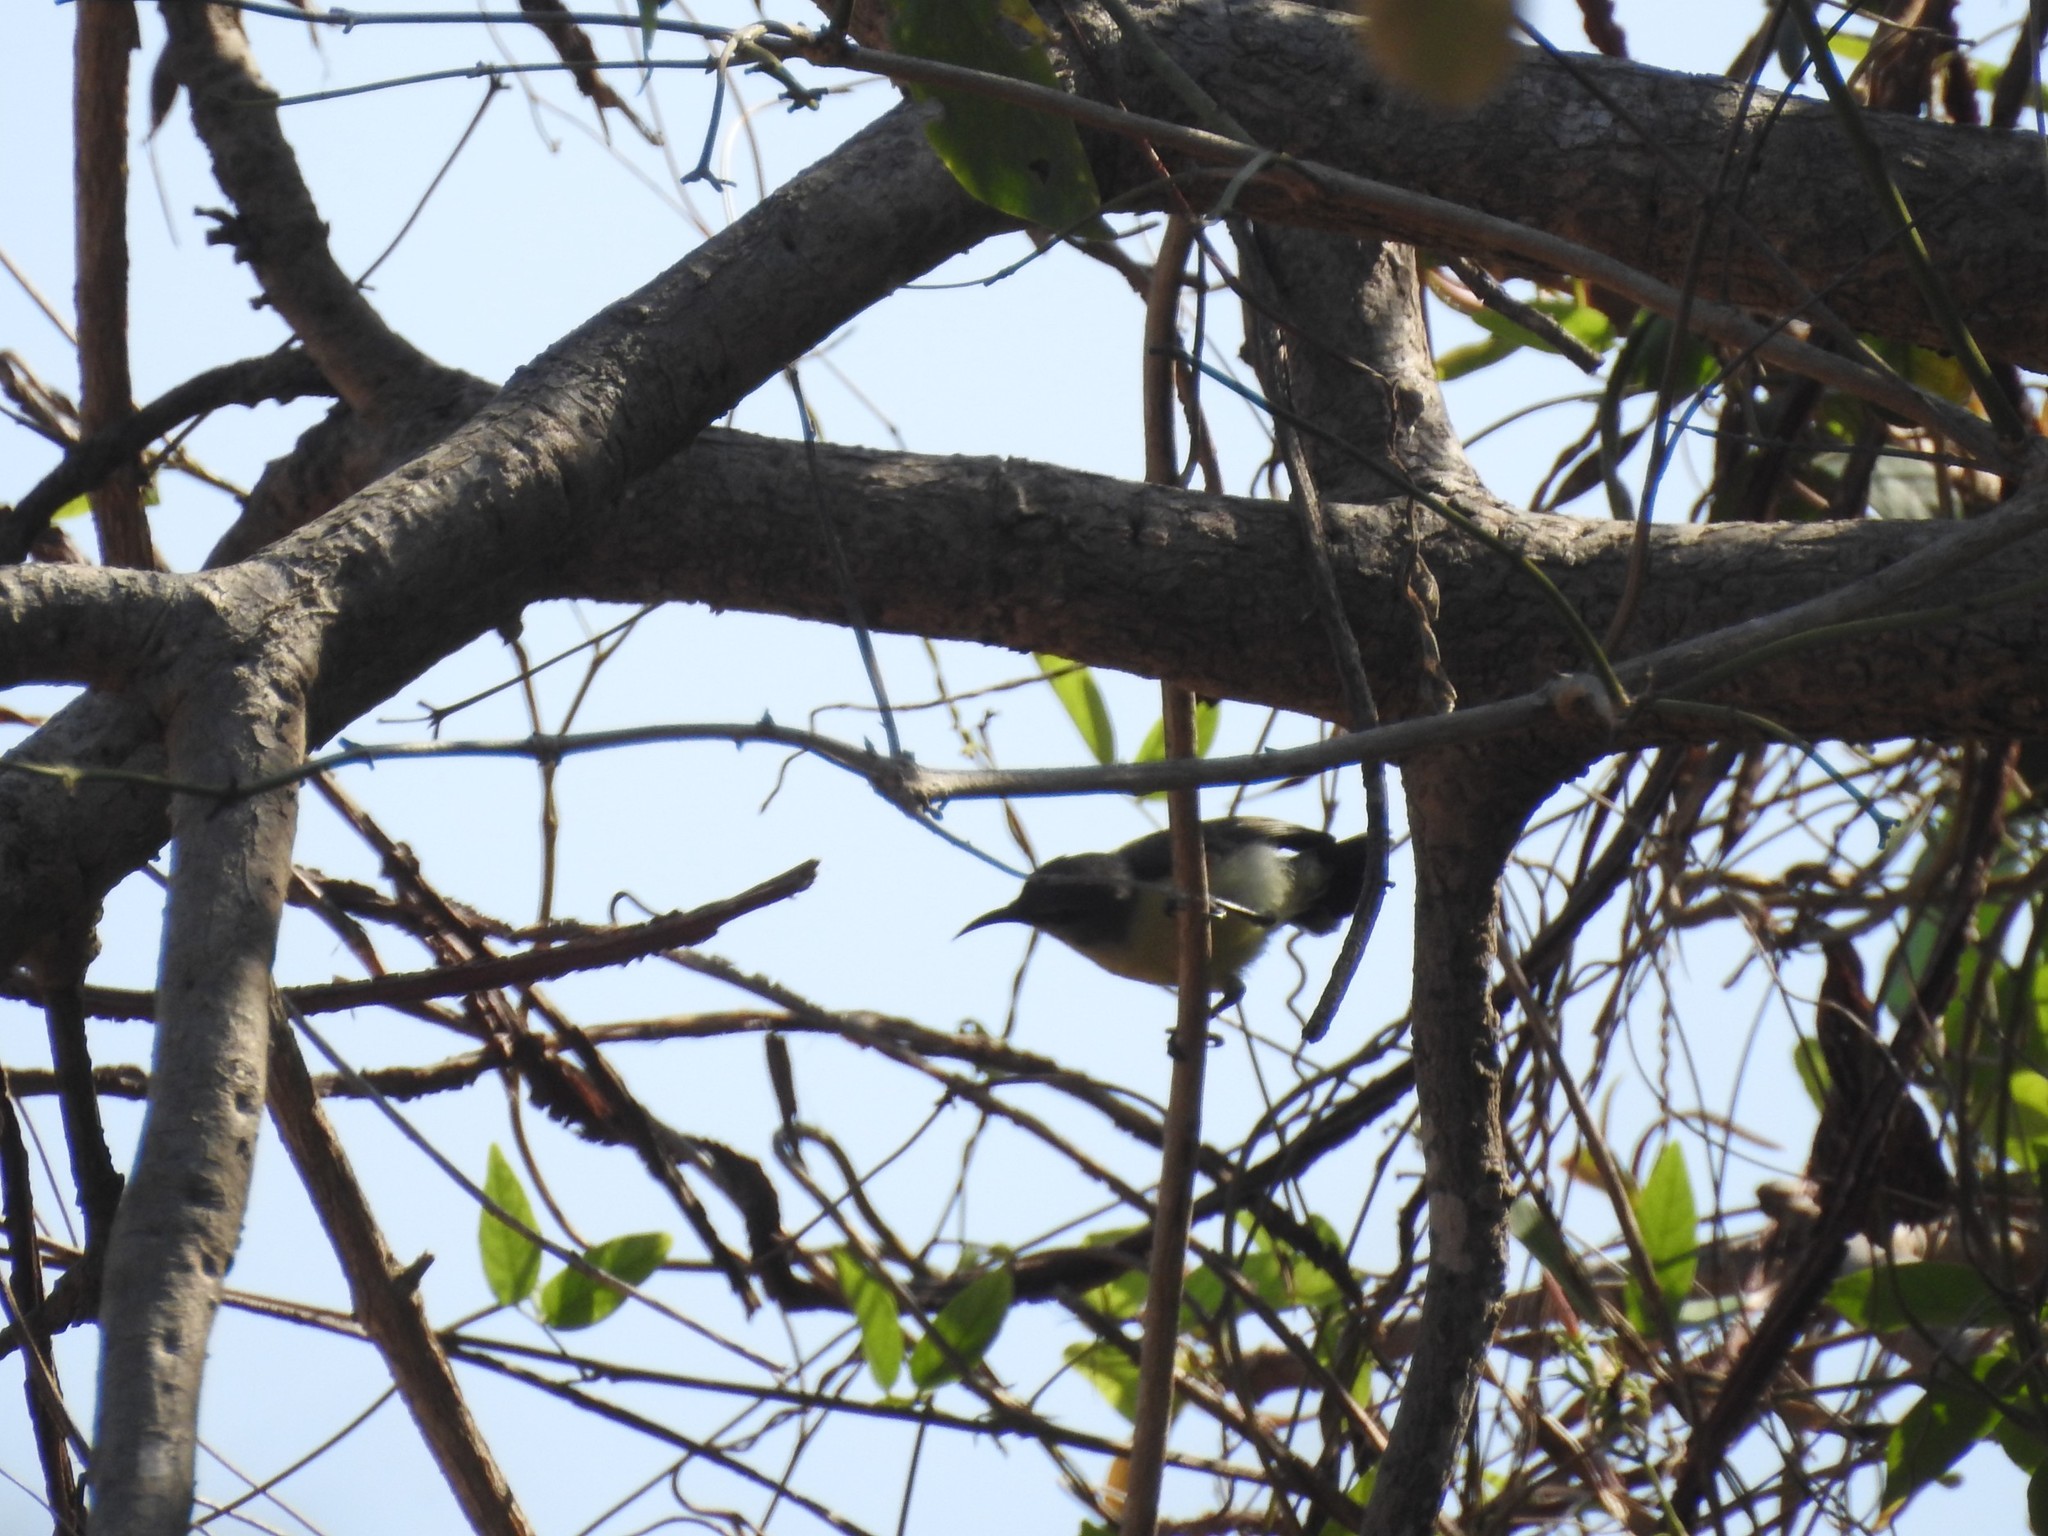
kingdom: Animalia
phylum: Chordata
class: Aves
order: Passeriformes
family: Nectariniidae
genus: Leptocoma
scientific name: Leptocoma zeylonica
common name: Purple-rumped sunbird
